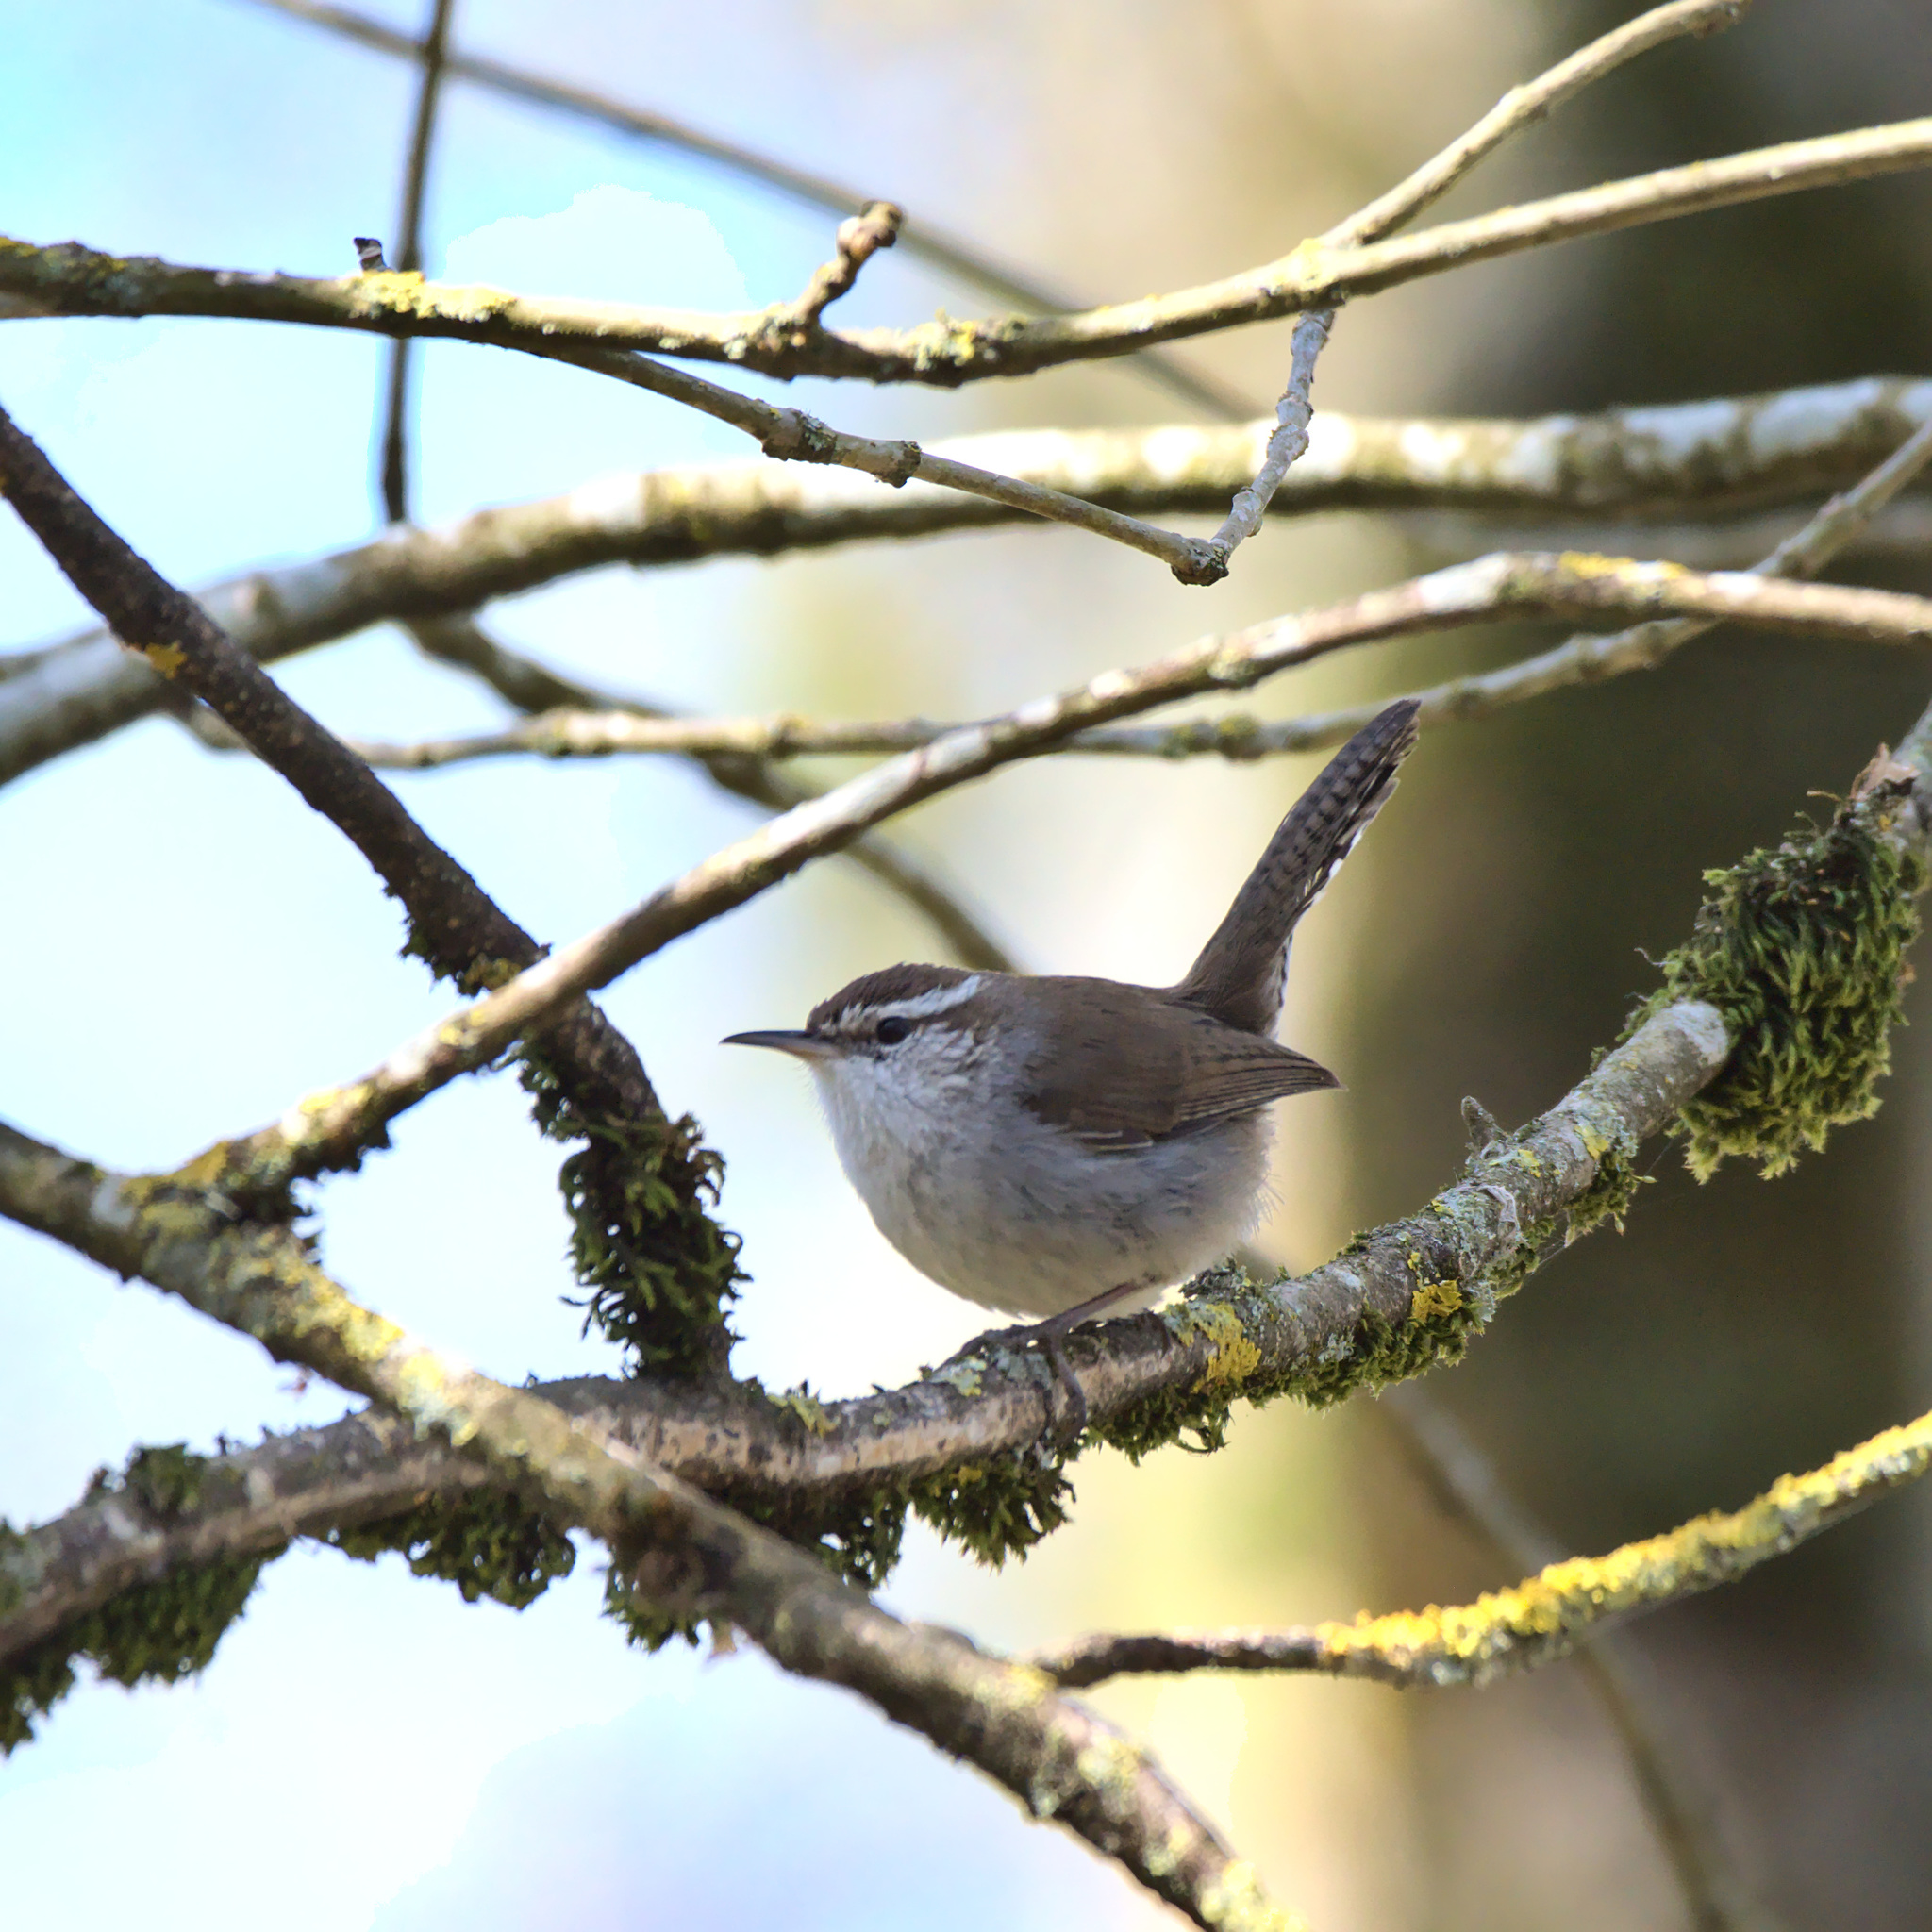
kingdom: Animalia
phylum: Chordata
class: Aves
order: Passeriformes
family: Troglodytidae
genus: Thryomanes
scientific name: Thryomanes bewickii
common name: Bewick's wren
